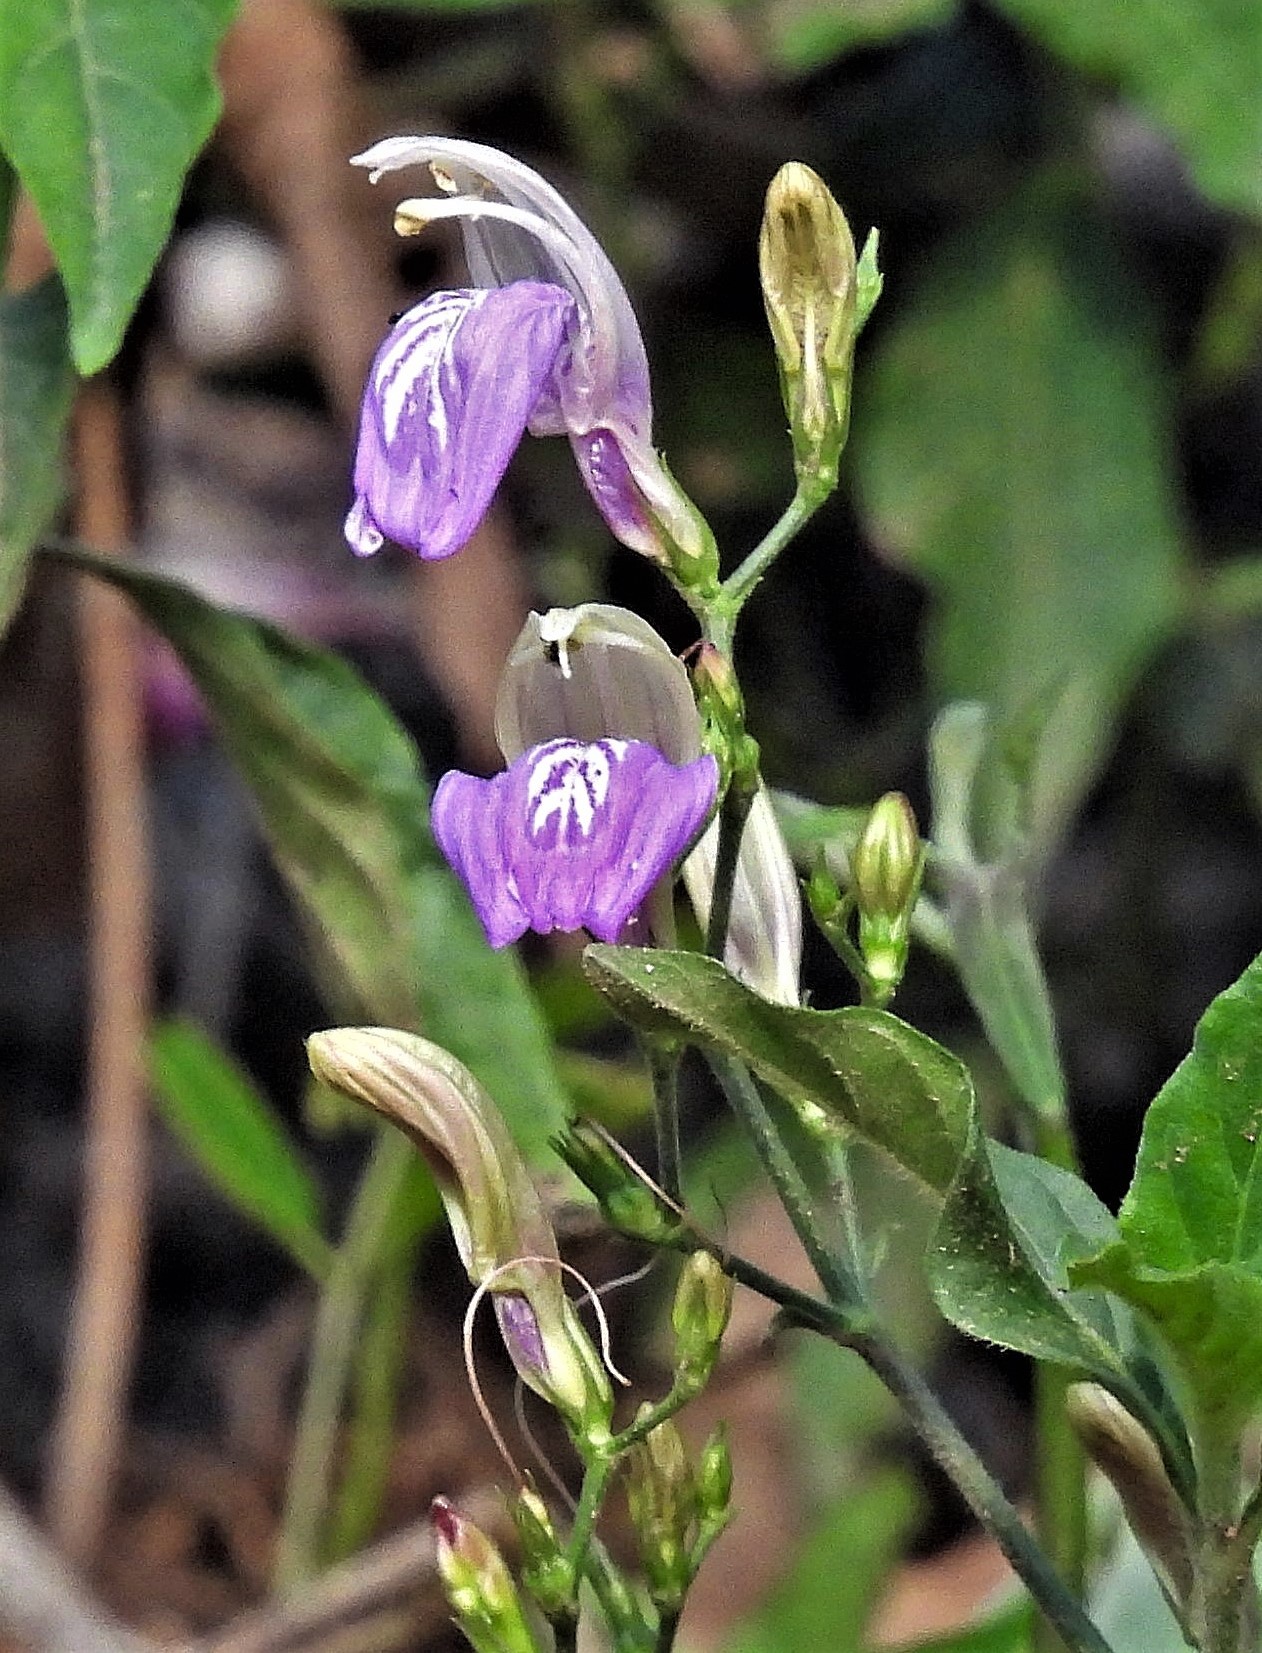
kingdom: Plantae
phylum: Tracheophyta
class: Magnoliopsida
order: Lamiales
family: Acanthaceae
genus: Justicia
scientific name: Justicia kuntzei
